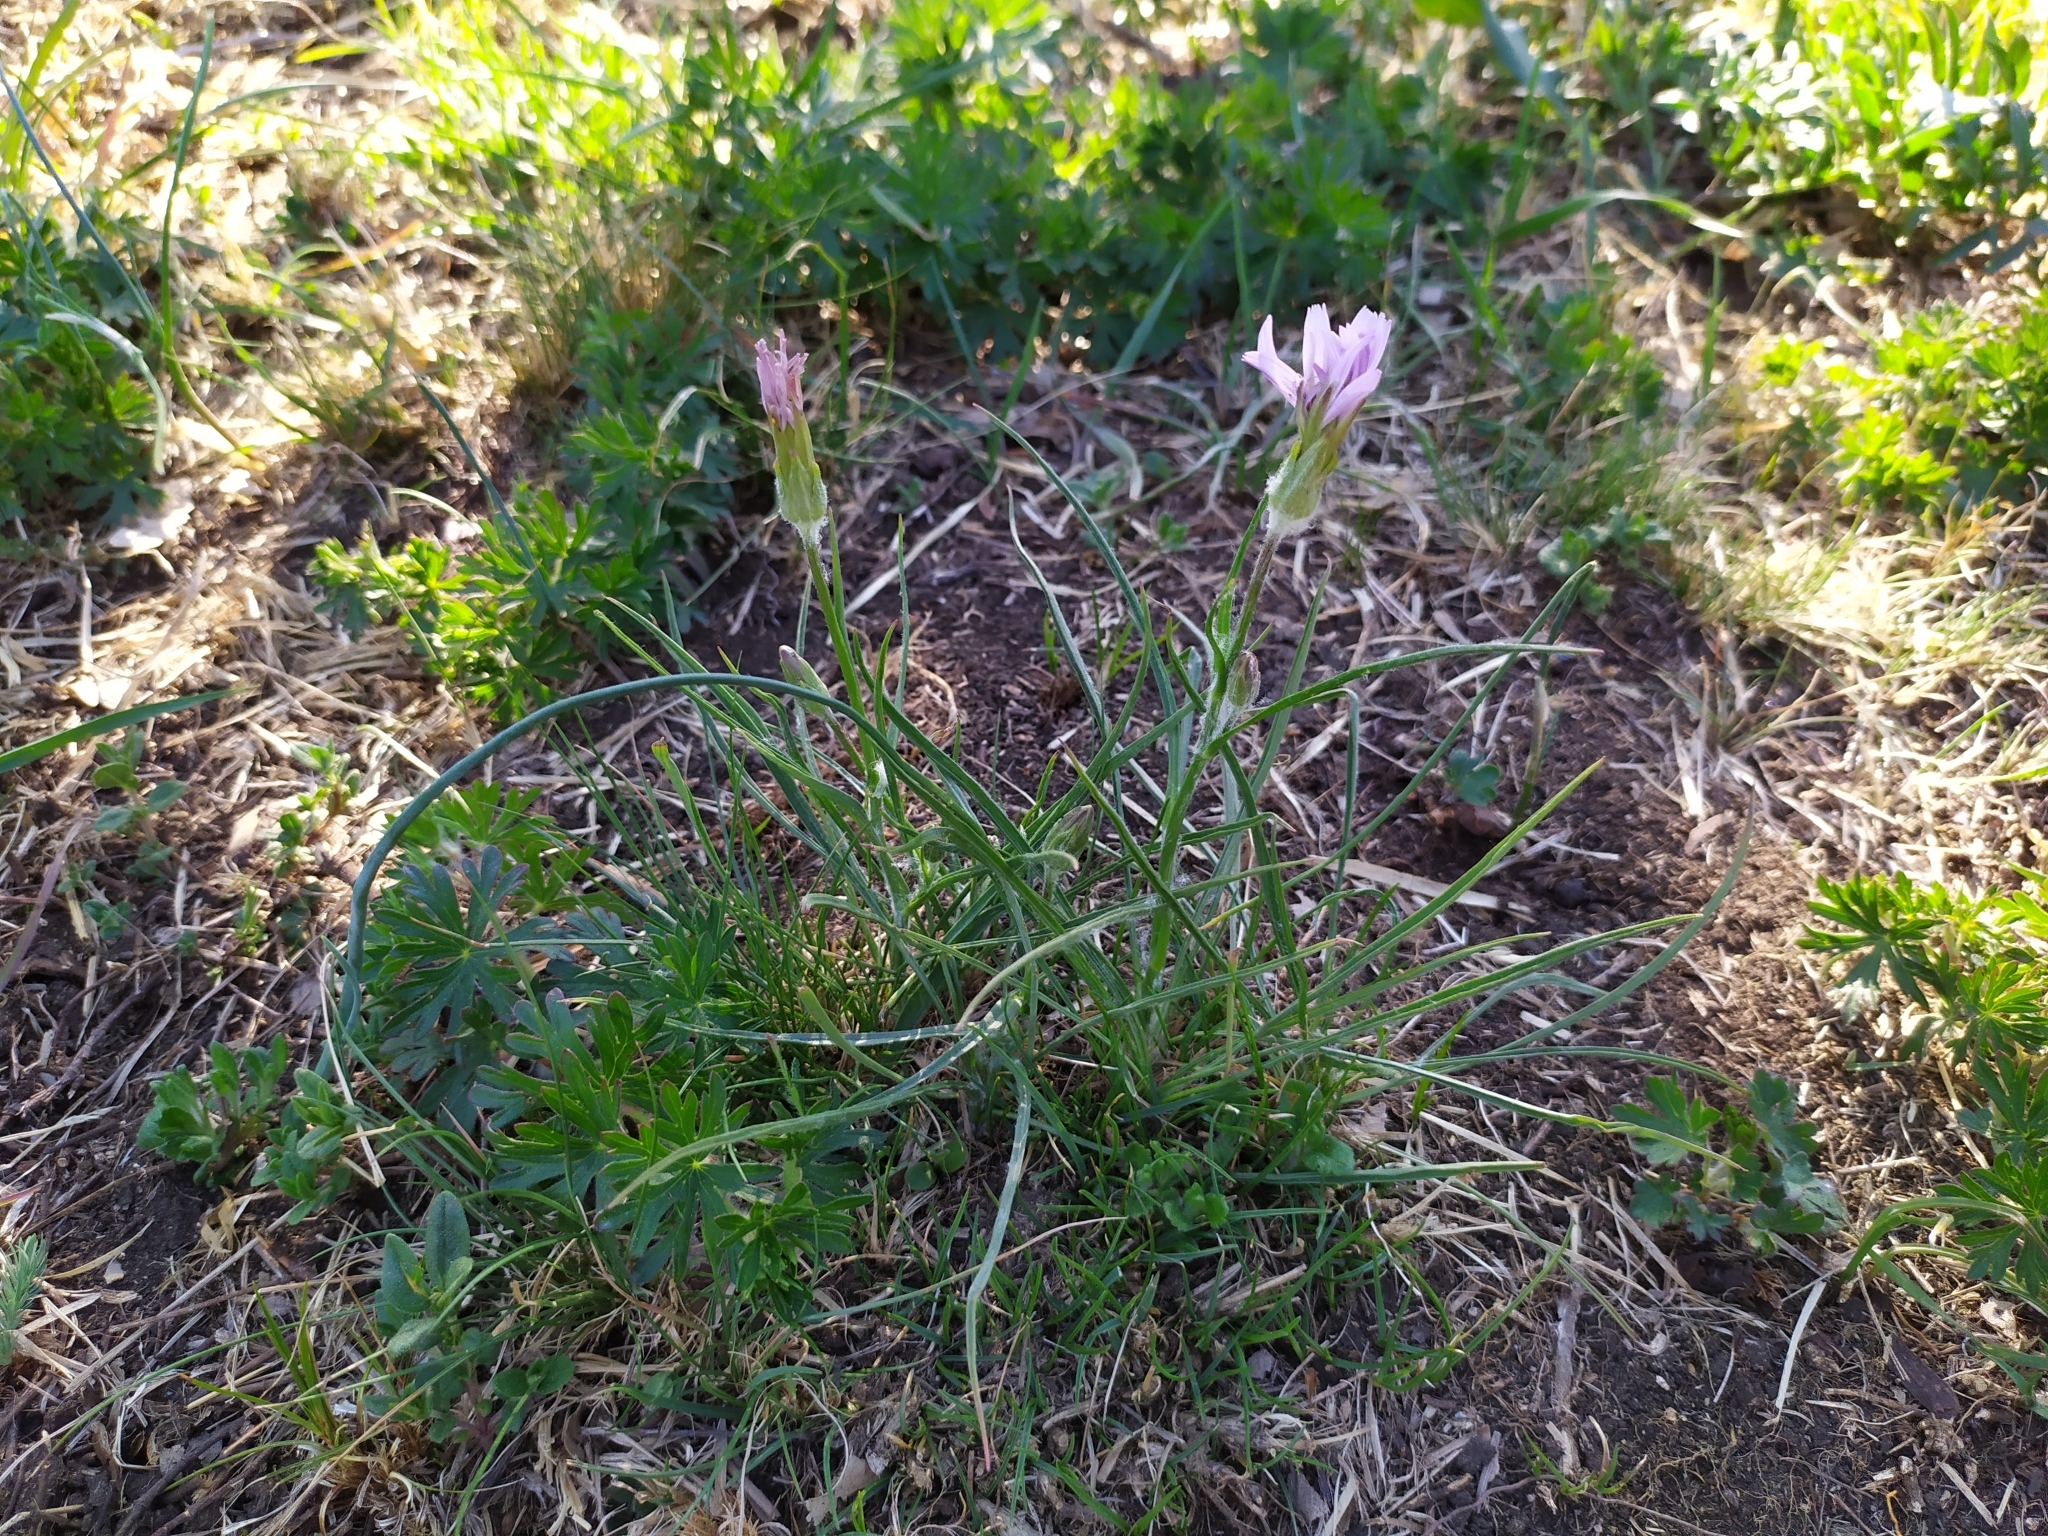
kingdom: Plantae
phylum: Tracheophyta
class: Magnoliopsida
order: Asterales
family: Asteraceae
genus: Scorzonera
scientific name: Scorzonera purpurea
